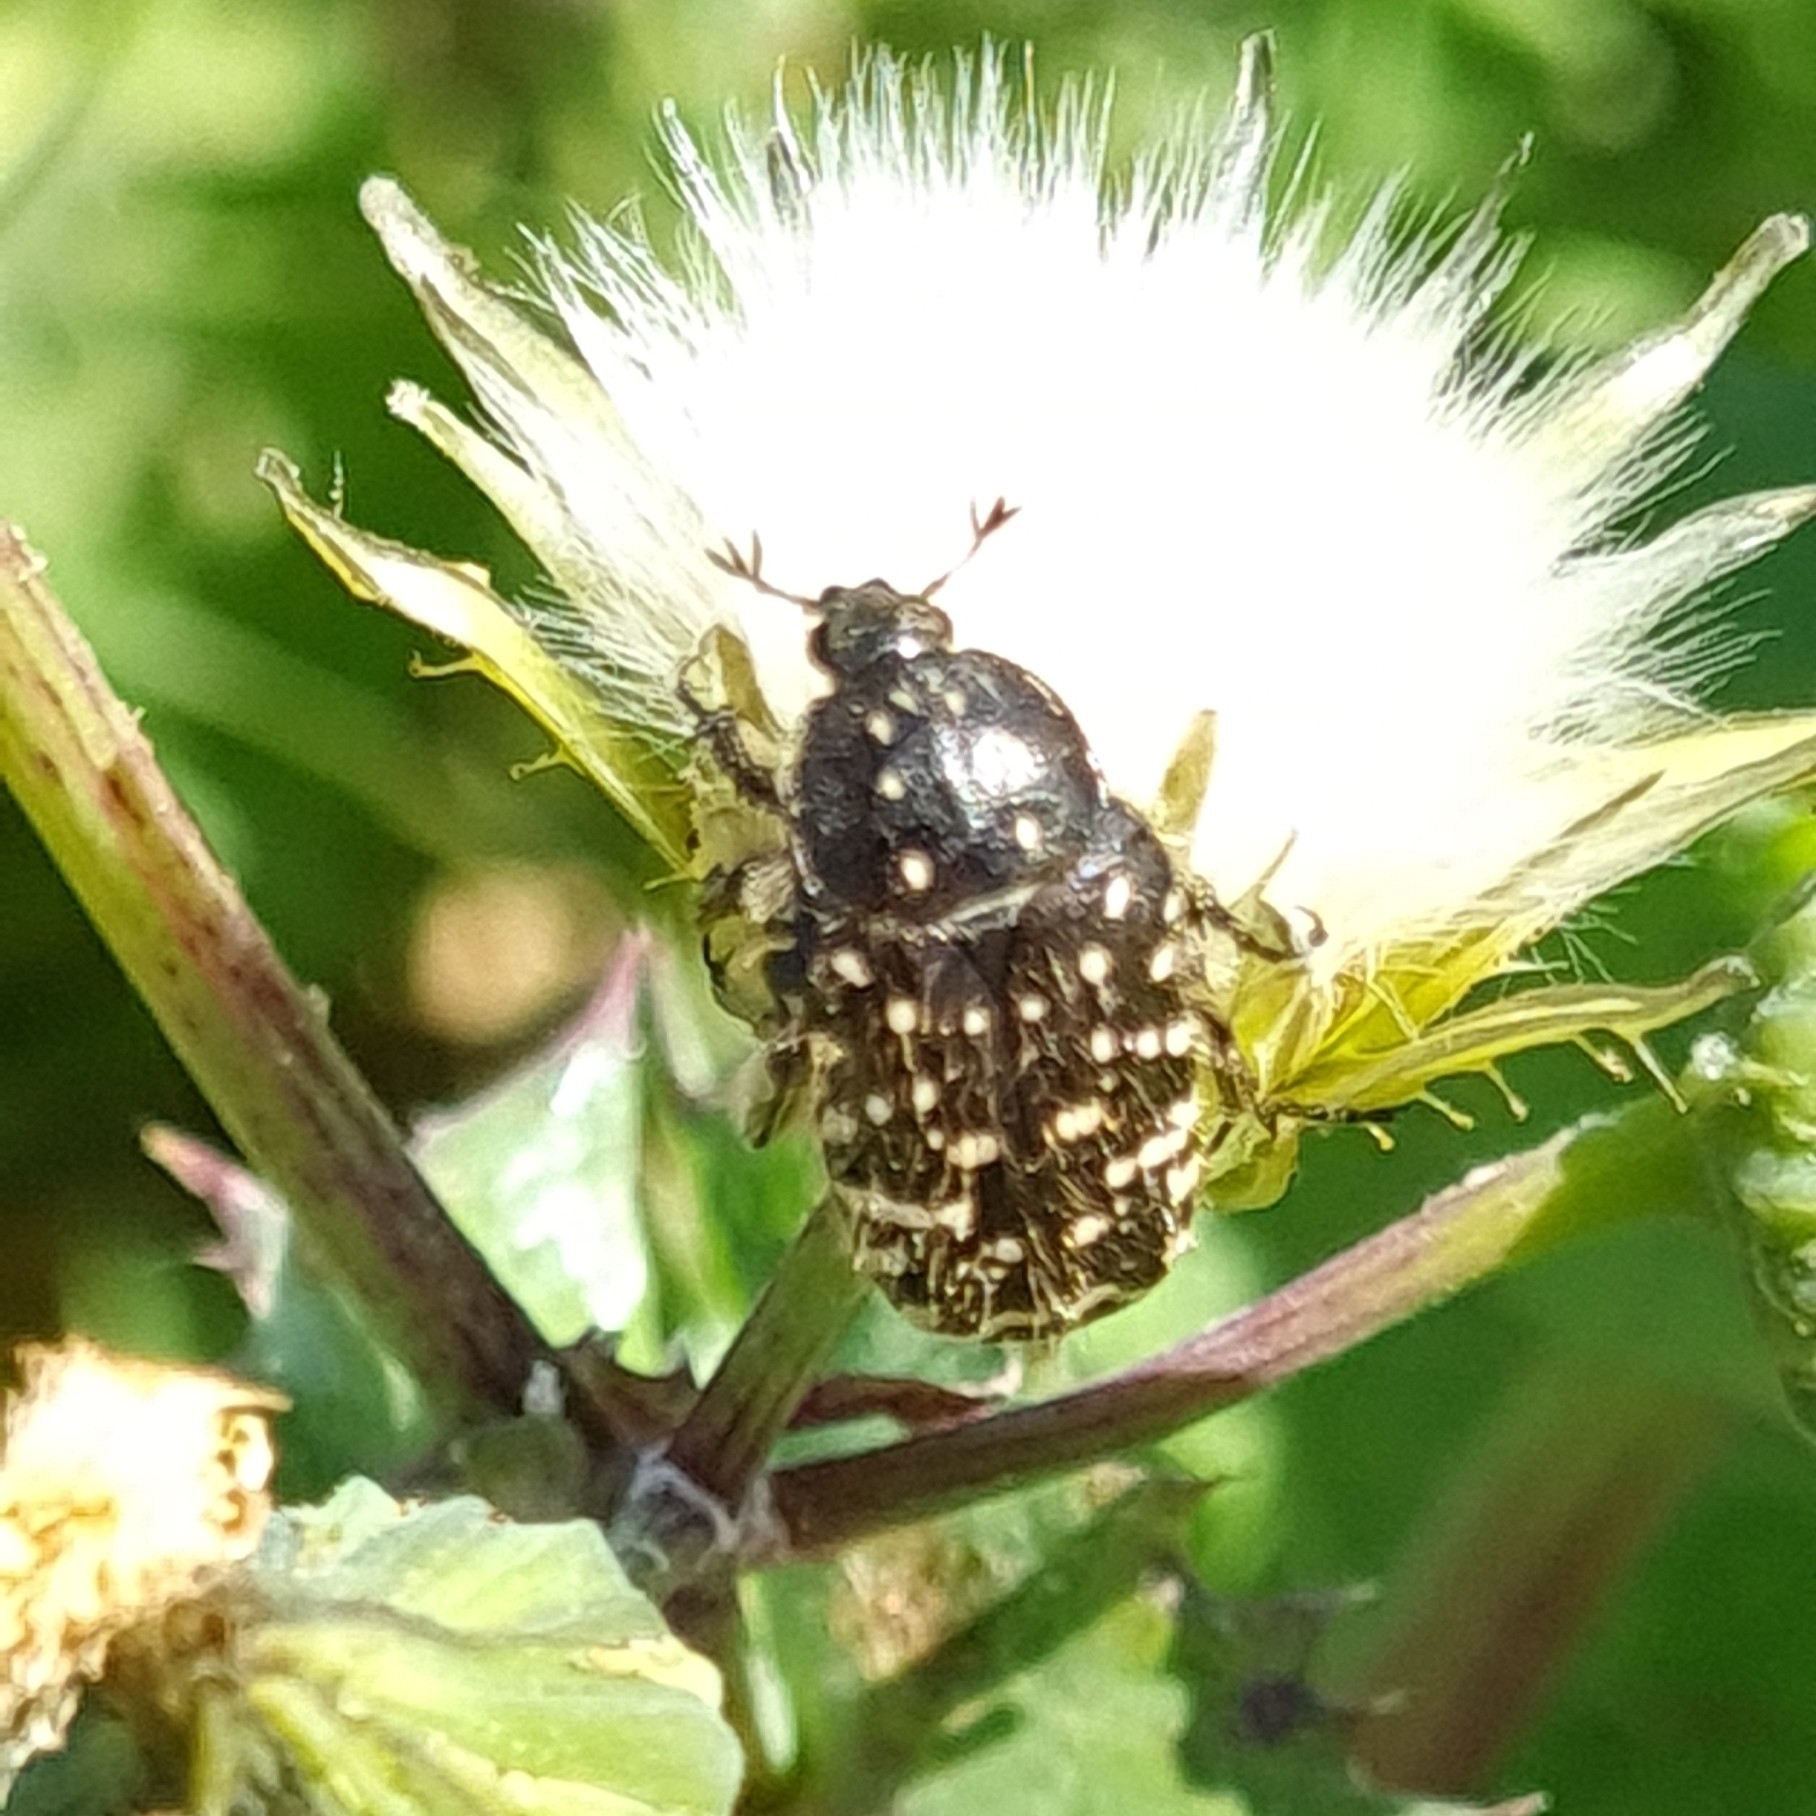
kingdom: Animalia
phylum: Arthropoda
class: Insecta
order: Coleoptera
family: Scarabaeidae
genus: Oxythyrea
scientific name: Oxythyrea funesta
